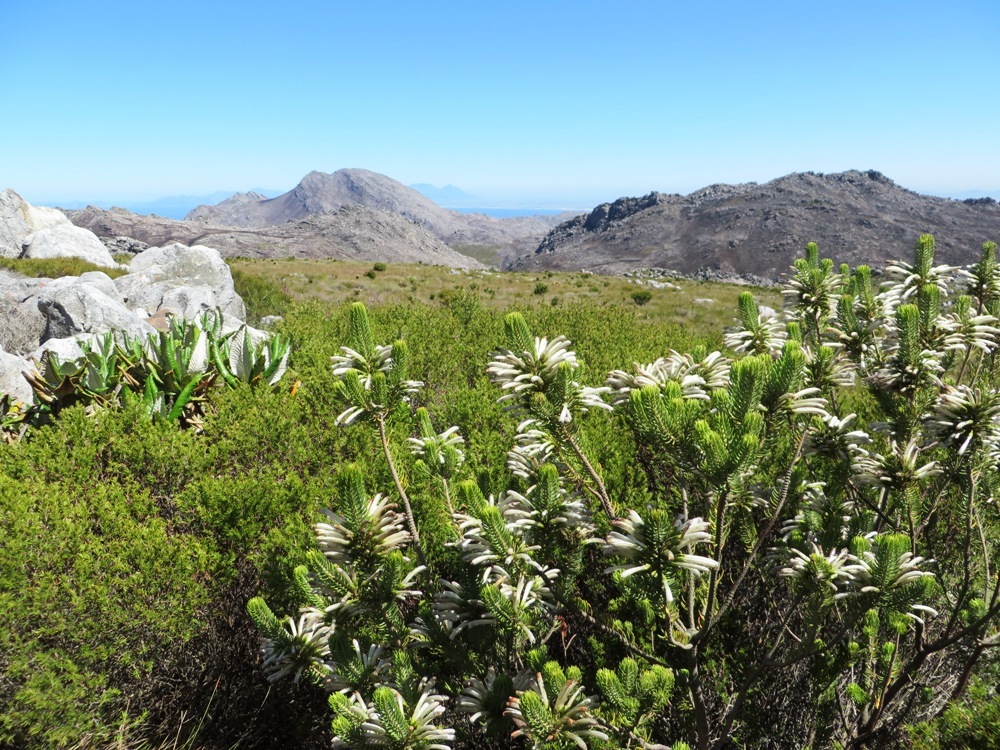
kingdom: Plantae
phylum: Tracheophyta
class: Magnoliopsida
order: Ericales
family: Ericaceae
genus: Erica
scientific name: Erica thomae
